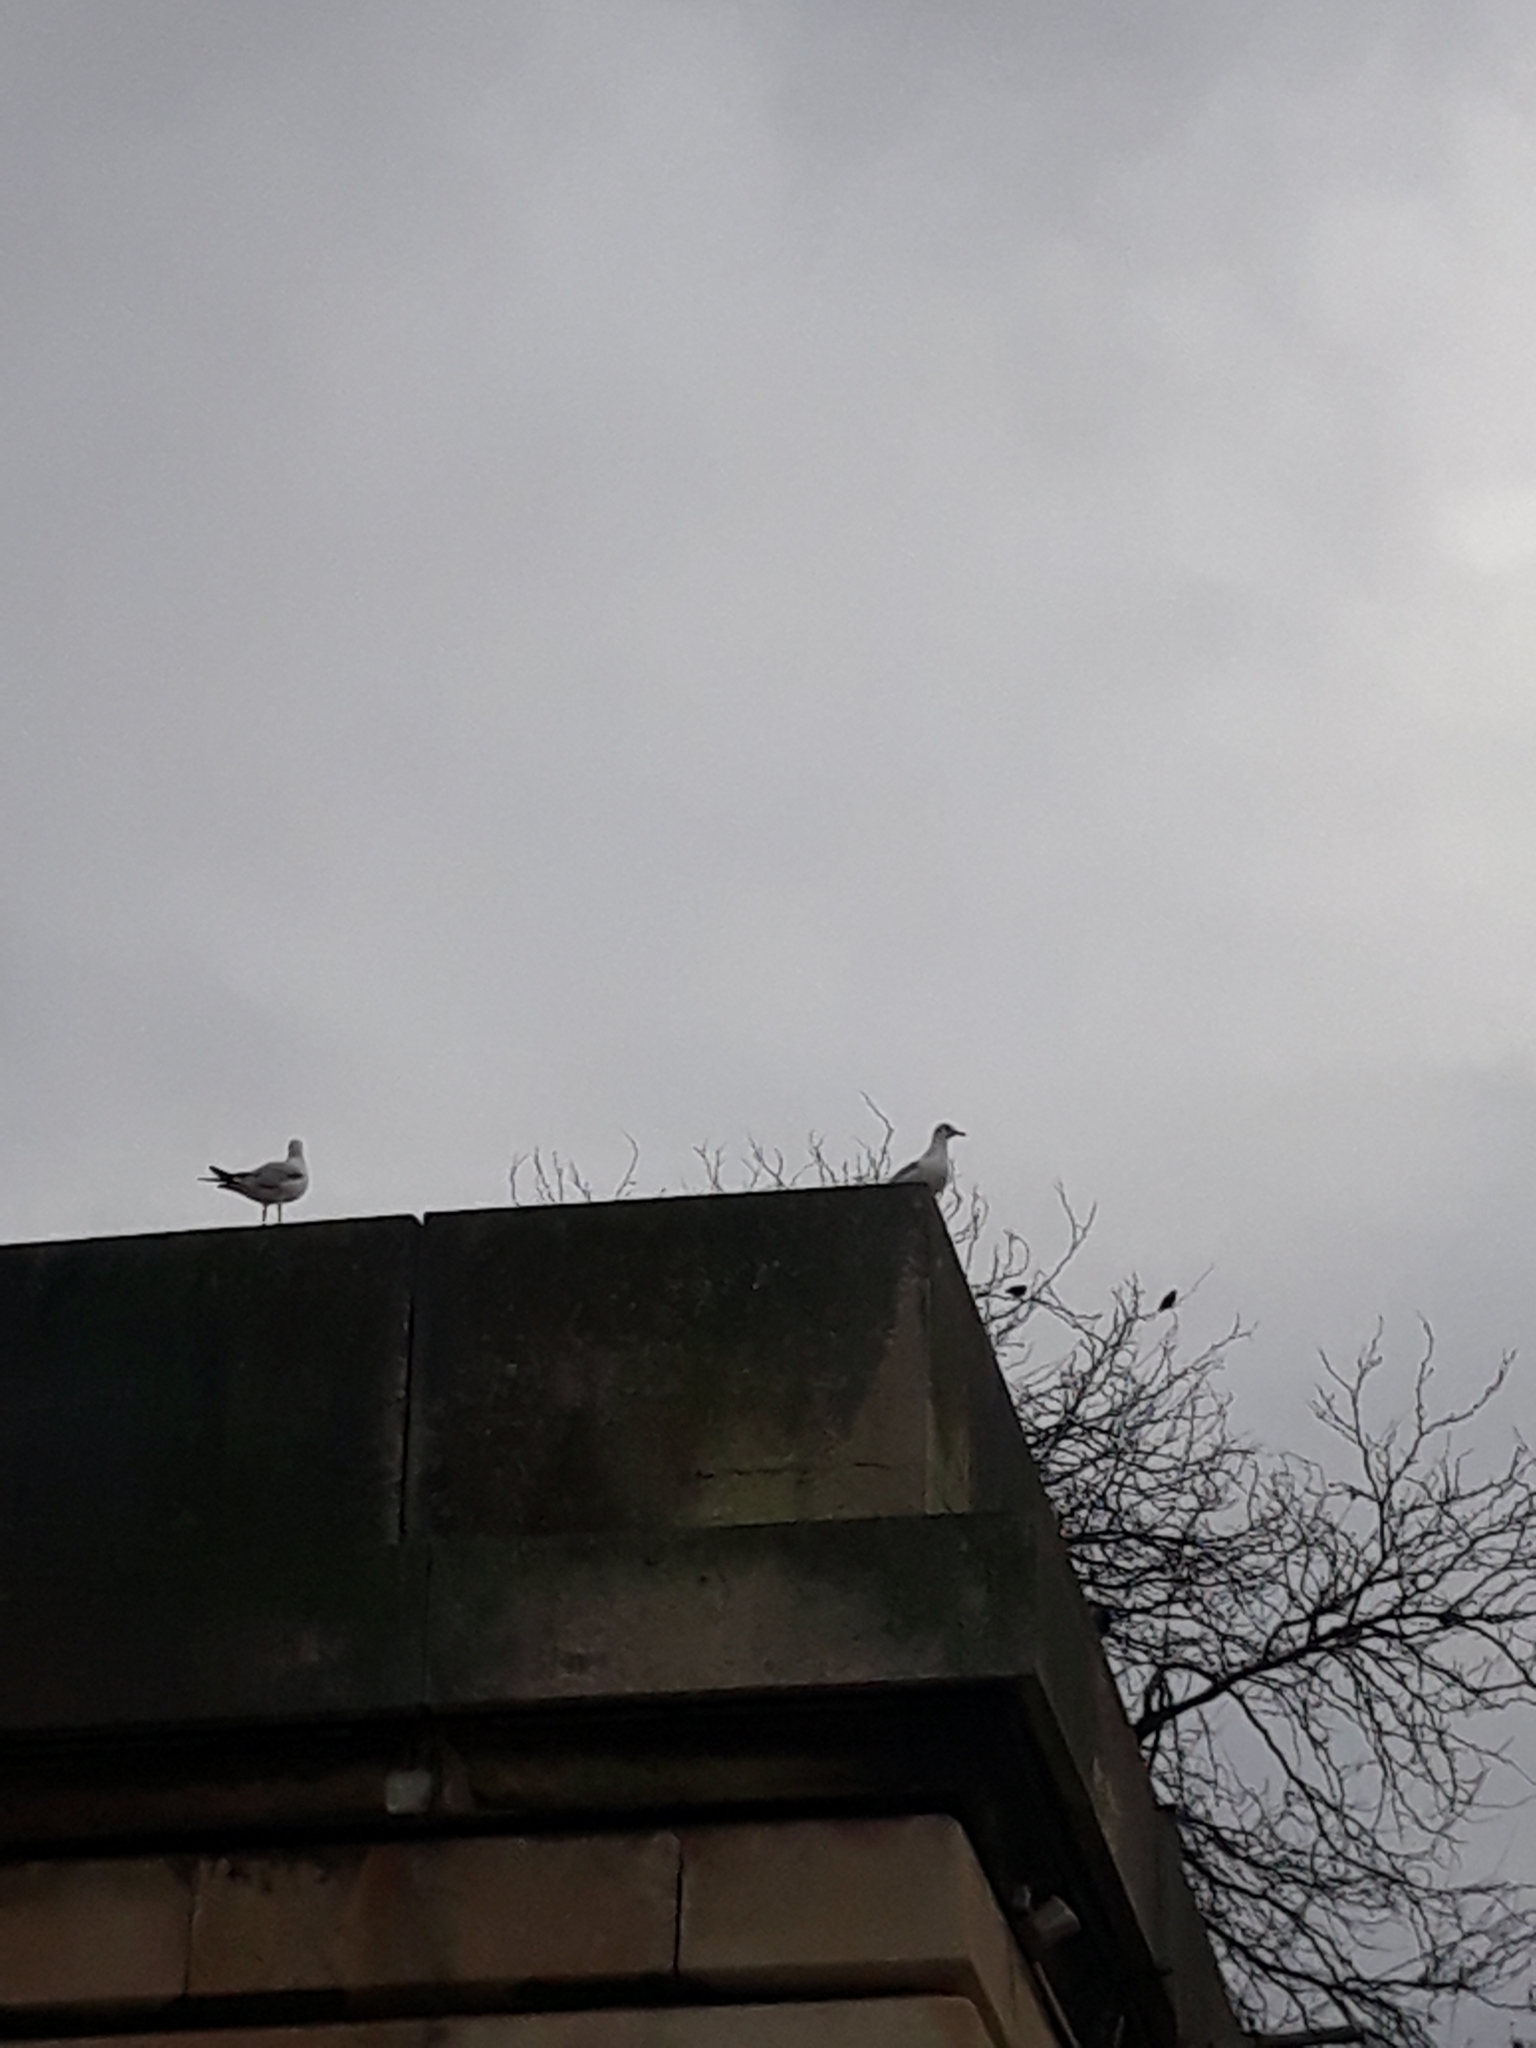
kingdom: Animalia
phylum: Chordata
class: Aves
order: Charadriiformes
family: Laridae
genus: Chroicocephalus
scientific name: Chroicocephalus ridibundus
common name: Black-headed gull
